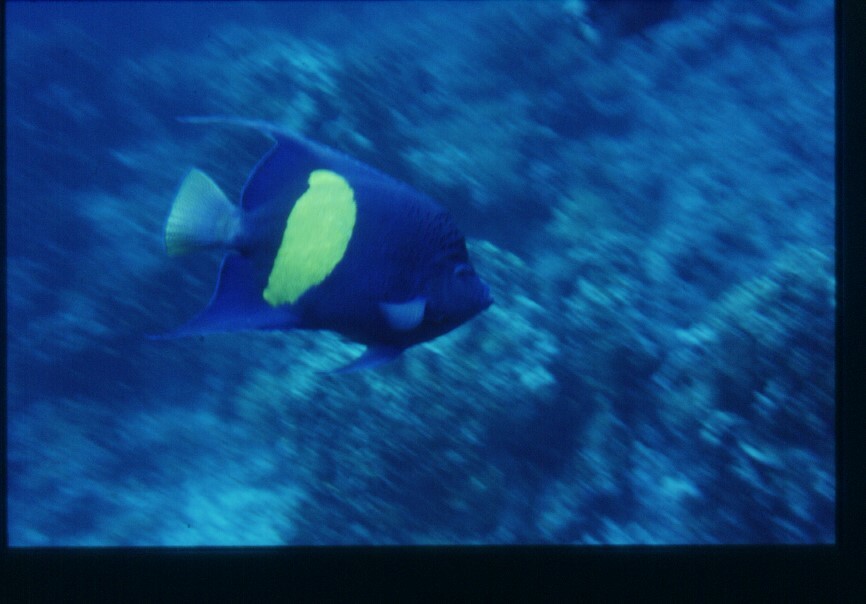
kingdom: Animalia
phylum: Chordata
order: Perciformes
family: Pomacanthidae
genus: Pomacanthus
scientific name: Pomacanthus maculosus
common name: Yellowbar angelfish
